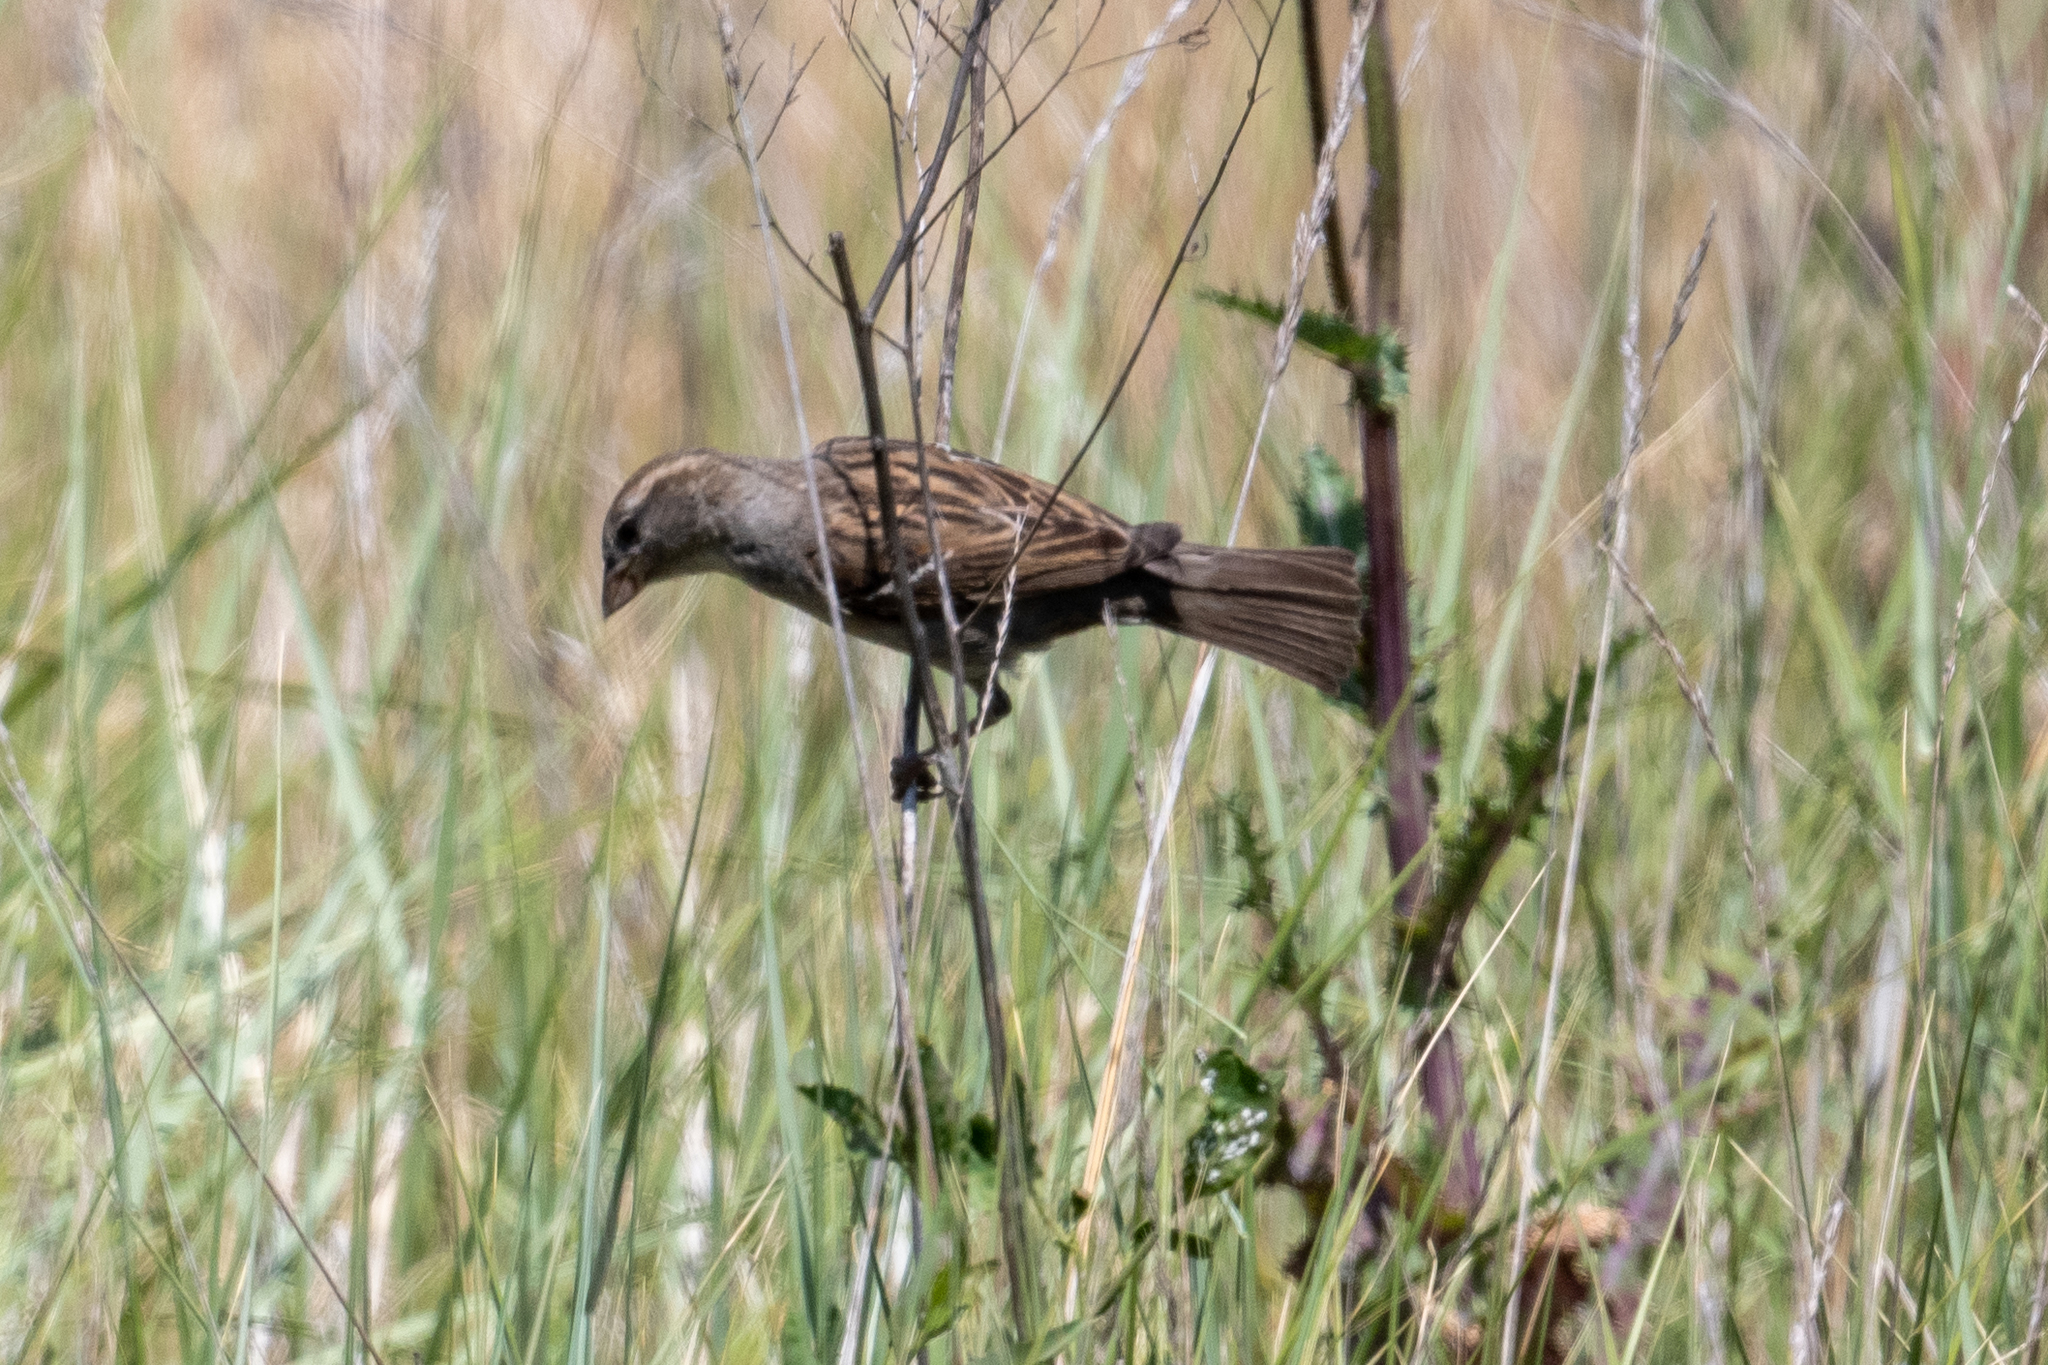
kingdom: Animalia
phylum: Chordata
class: Aves
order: Passeriformes
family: Passeridae
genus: Passer
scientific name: Passer domesticus
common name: House sparrow
